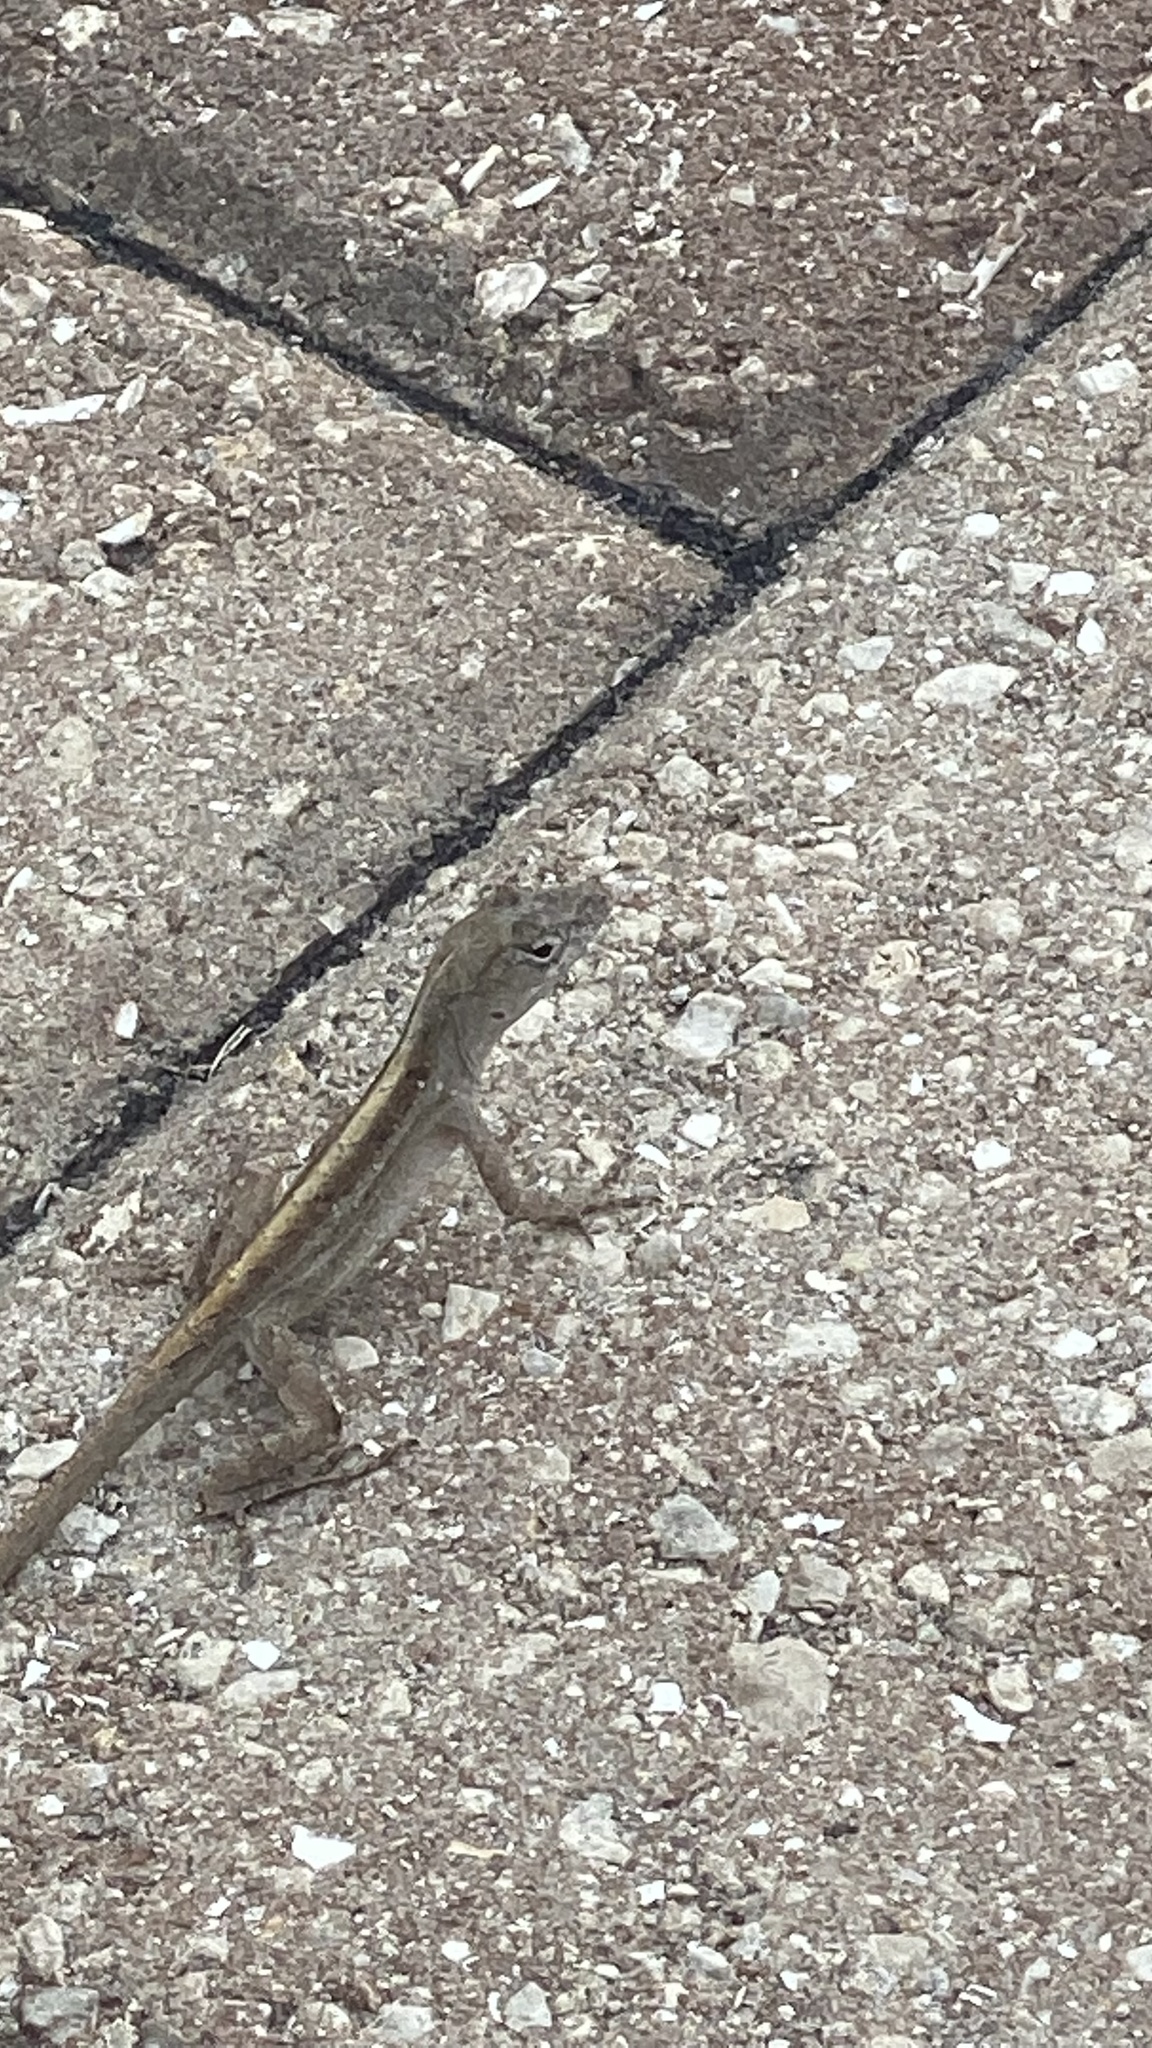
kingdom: Animalia
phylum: Chordata
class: Squamata
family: Dactyloidae
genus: Anolis
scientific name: Anolis sagrei
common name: Brown anole
